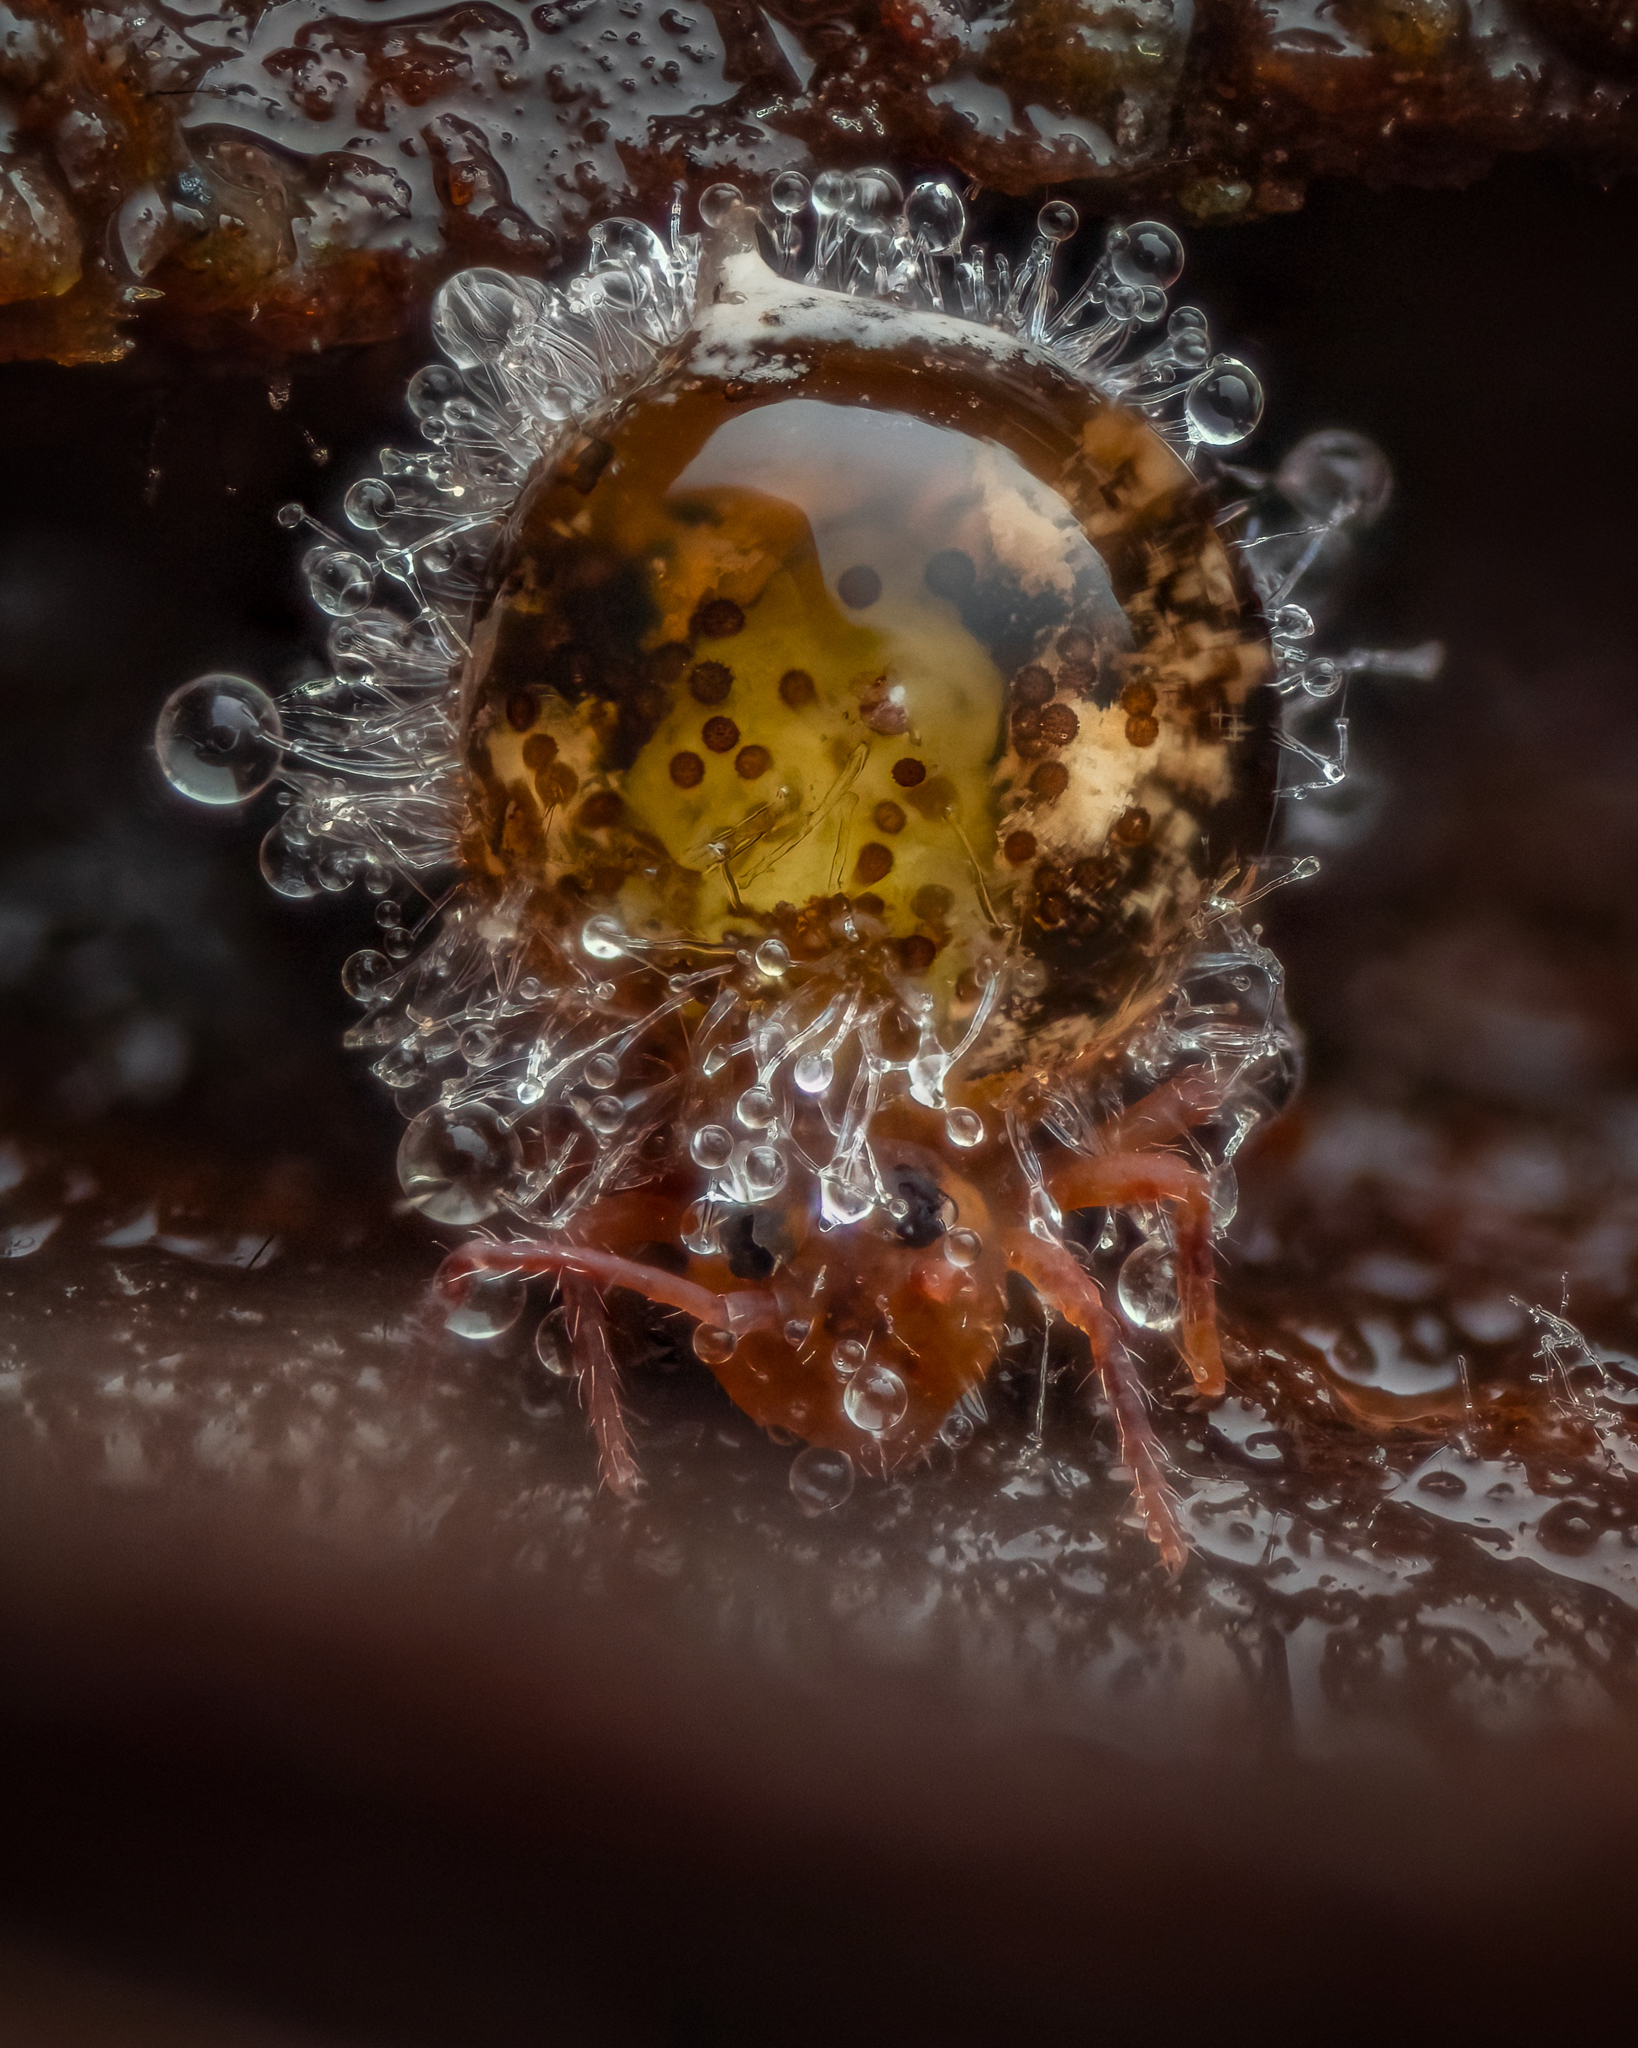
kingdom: Fungi
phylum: Entomophthoromycota
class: Entomophthoromycetes
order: Entomophthorales
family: Entomophthoraceae
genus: Pandora
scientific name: Pandora batallata
